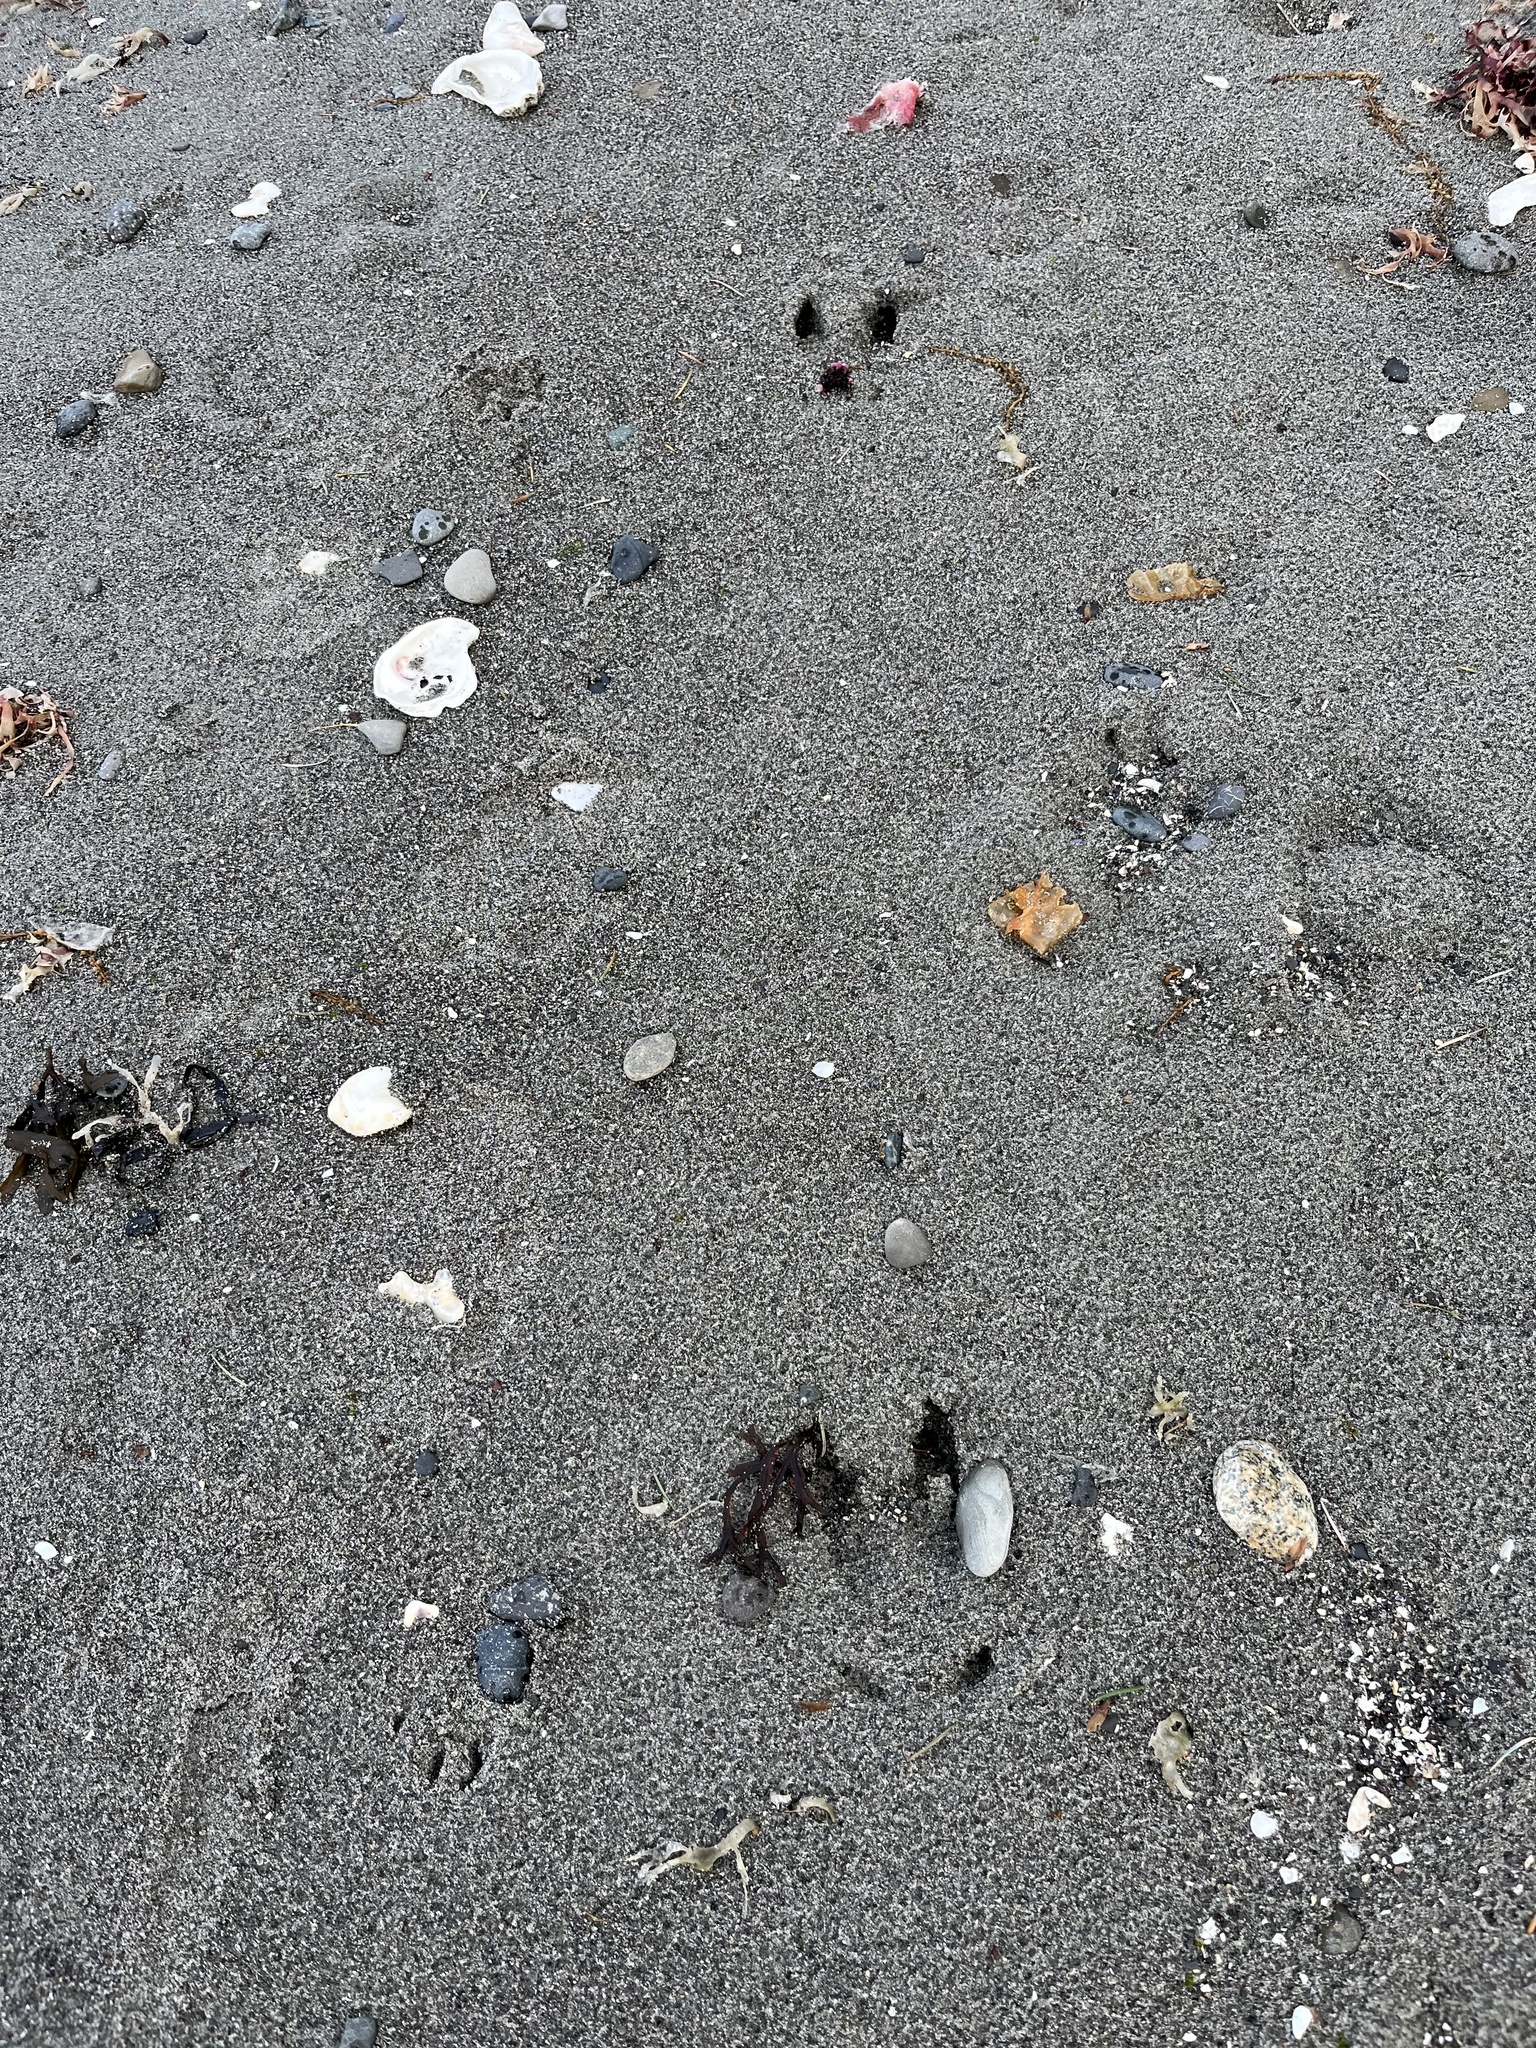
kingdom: Animalia
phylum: Chordata
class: Mammalia
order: Artiodactyla
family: Cervidae
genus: Odocoileus
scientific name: Odocoileus hemionus
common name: Mule deer
